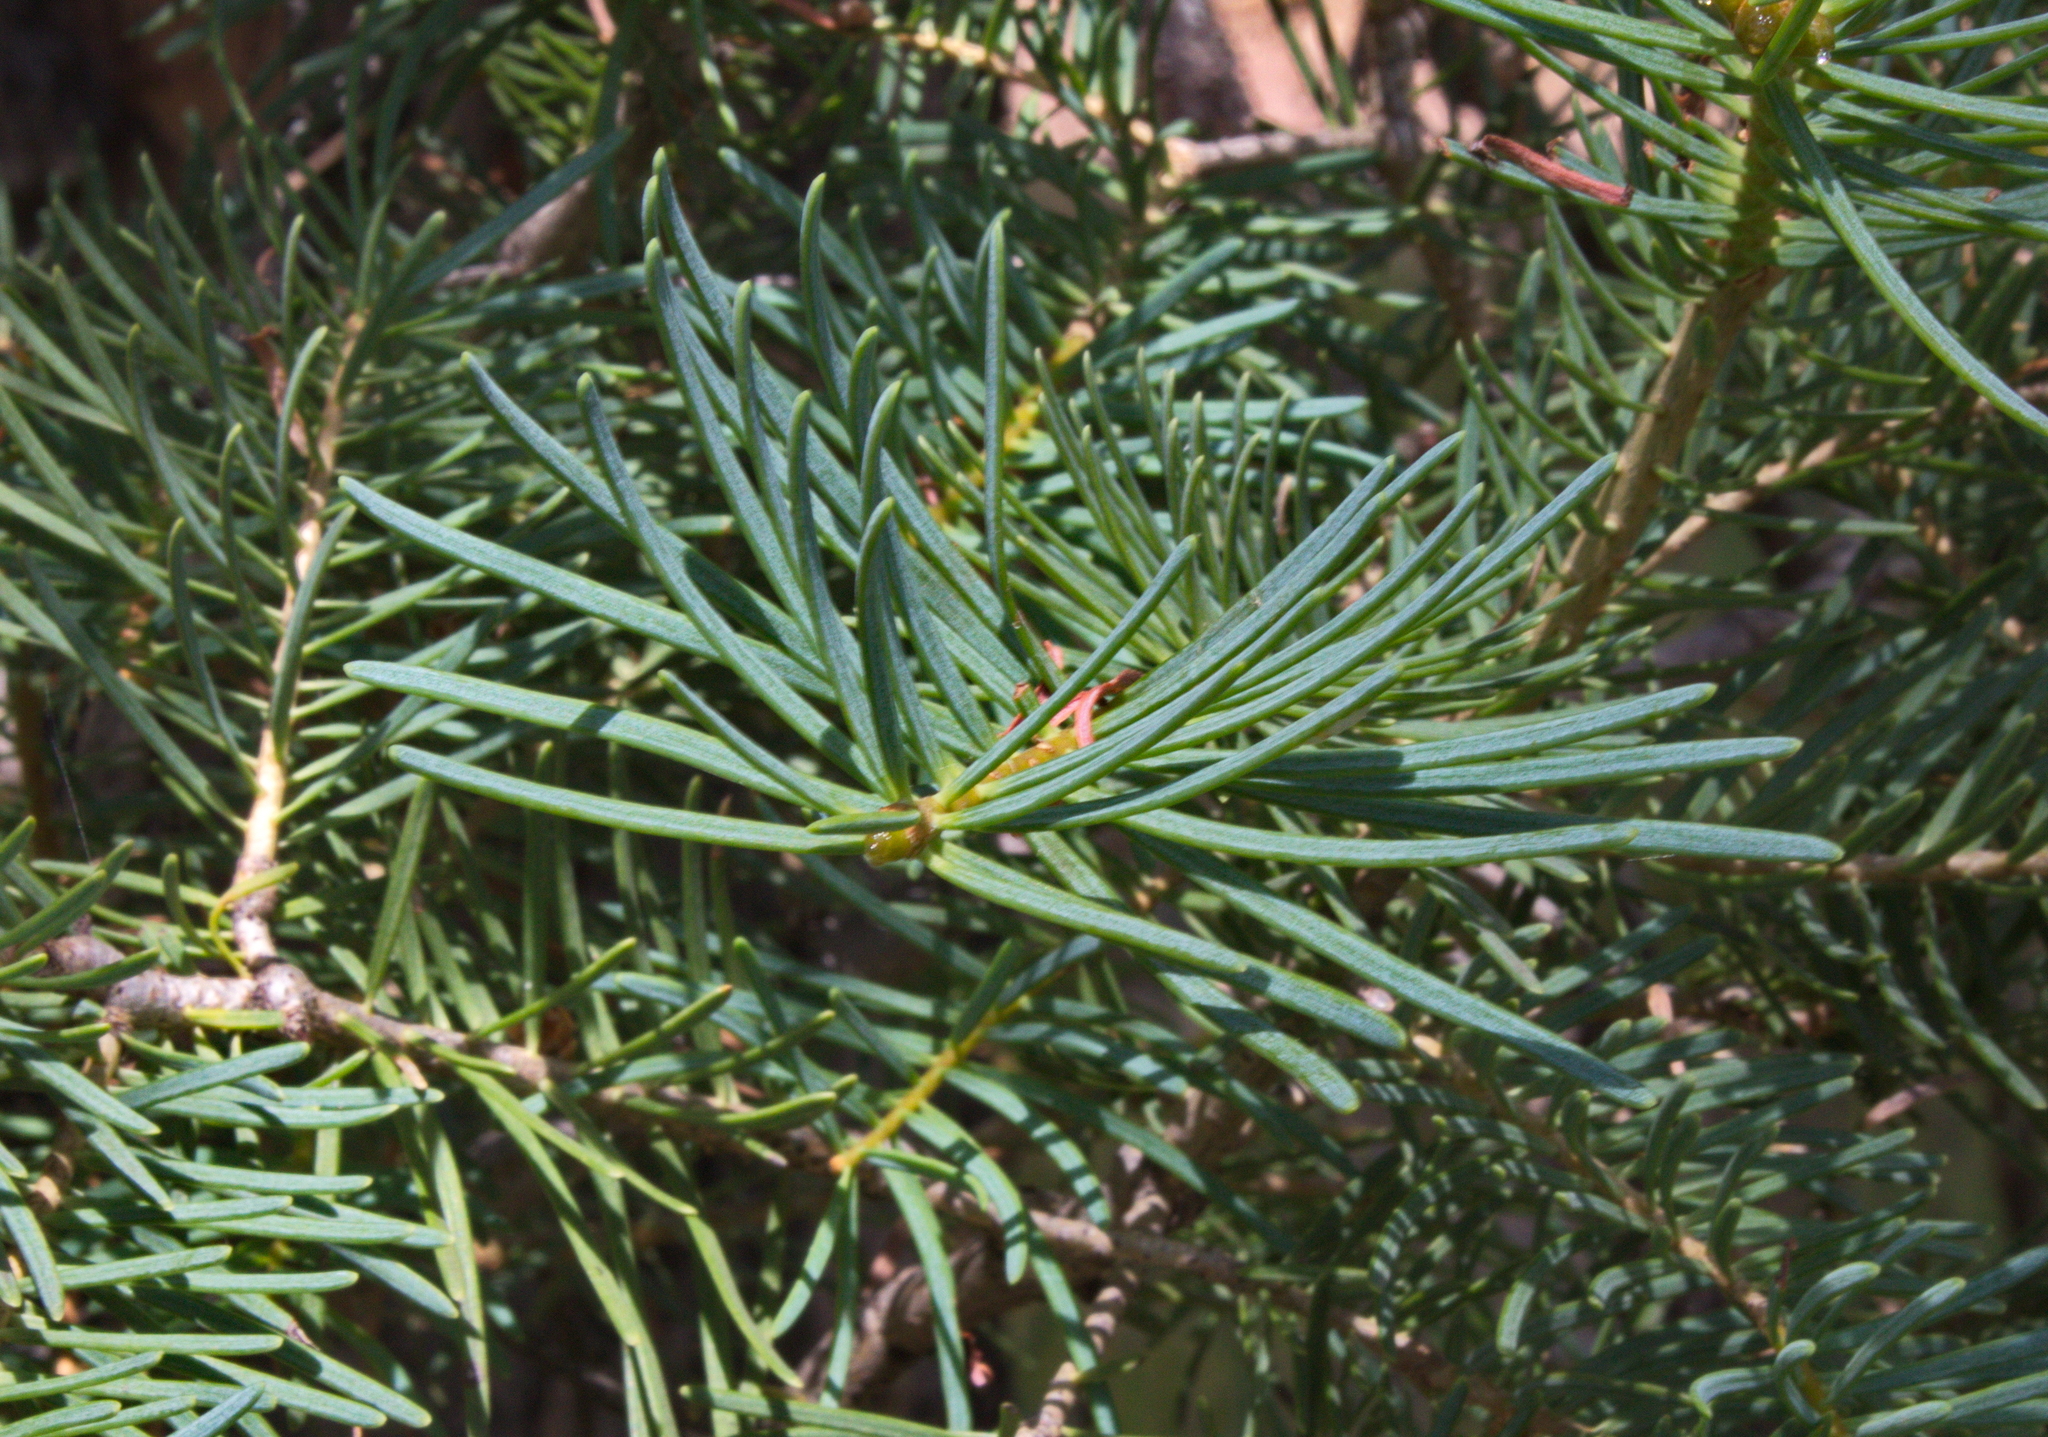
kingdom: Plantae
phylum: Tracheophyta
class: Pinopsida
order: Pinales
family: Pinaceae
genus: Abies
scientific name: Abies concolor
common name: Colorado fir
